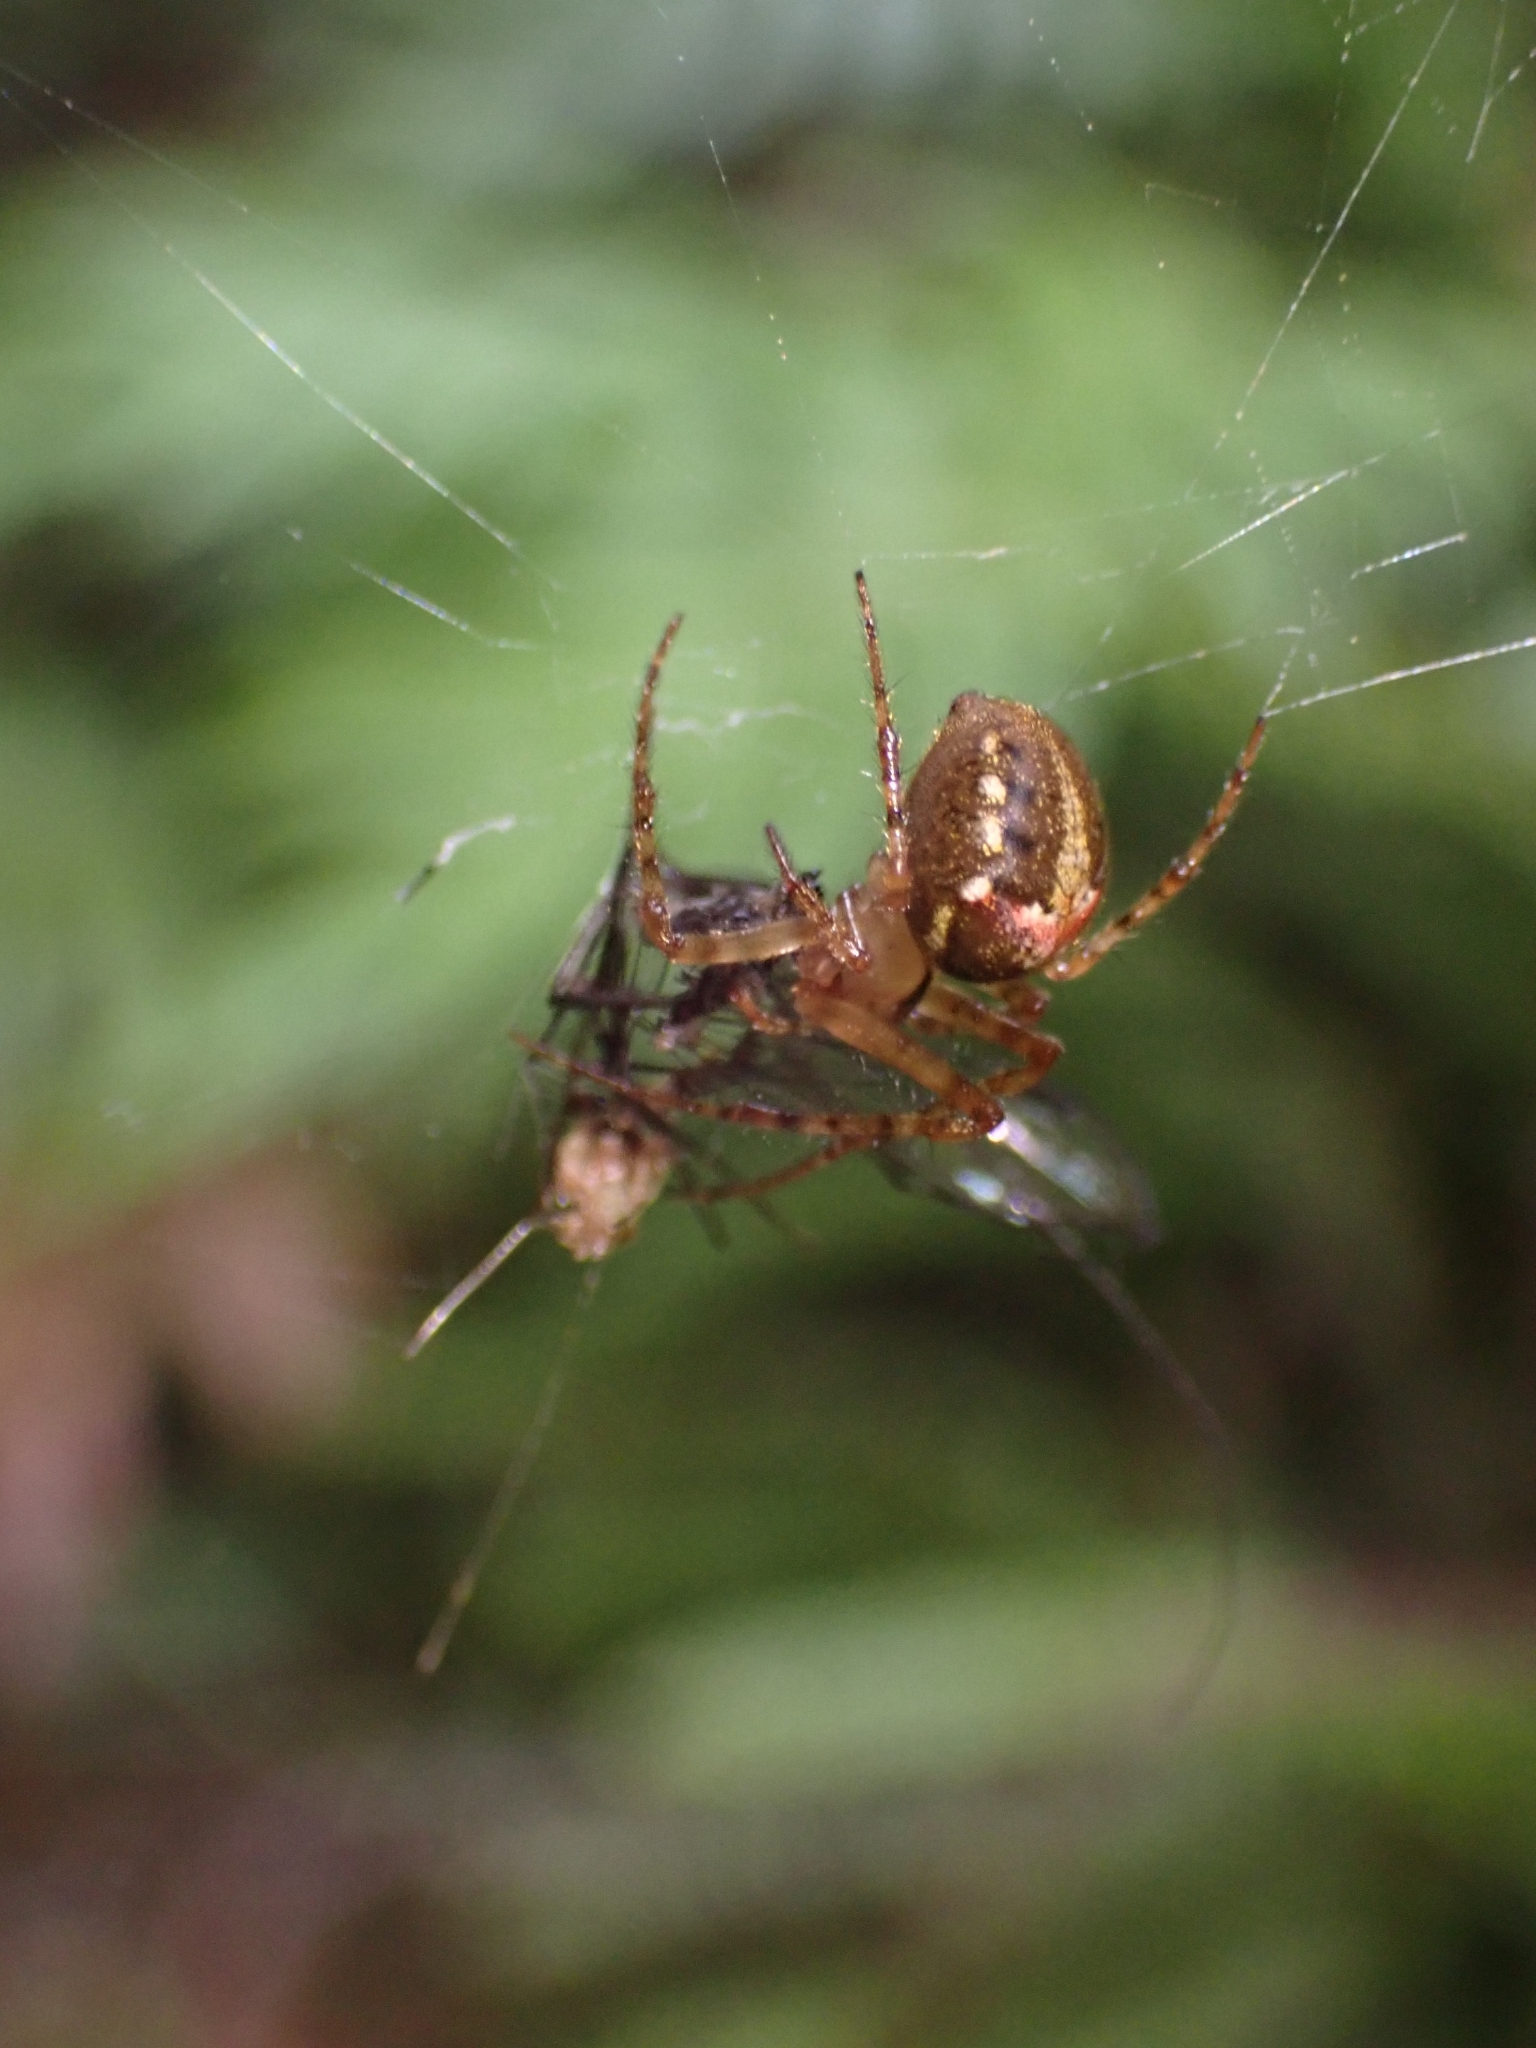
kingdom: Animalia
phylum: Arthropoda
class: Arachnida
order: Araneae
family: Tetragnathidae
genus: Taraire
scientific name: Taraire rufolineata
